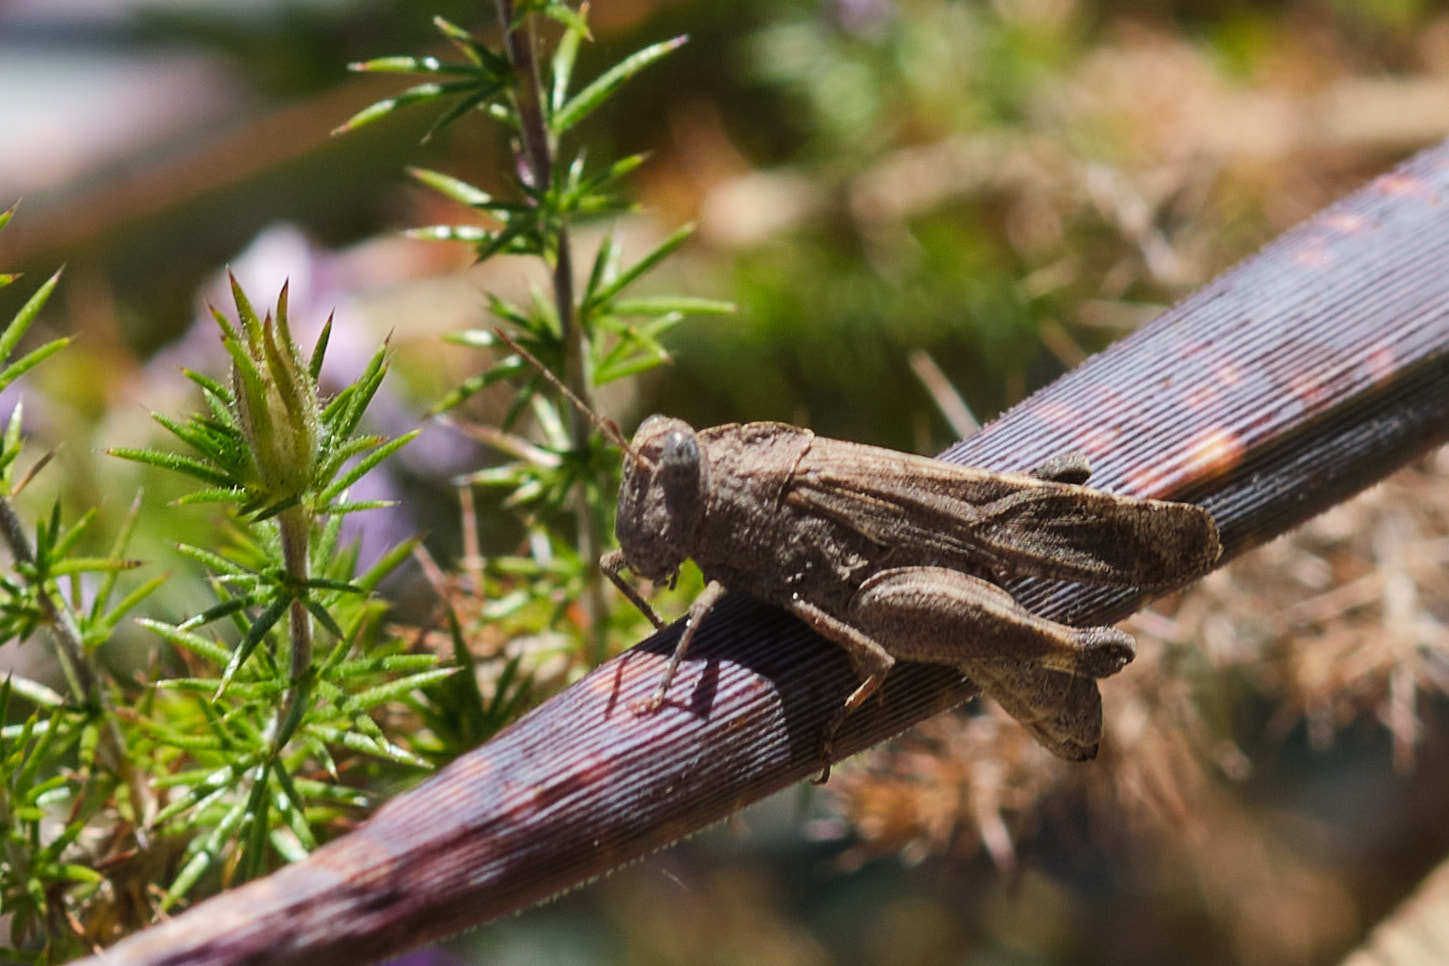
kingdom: Animalia
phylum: Arthropoda
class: Insecta
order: Orthoptera
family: Acrididae
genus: Lactista
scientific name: Lactista gibbosus
